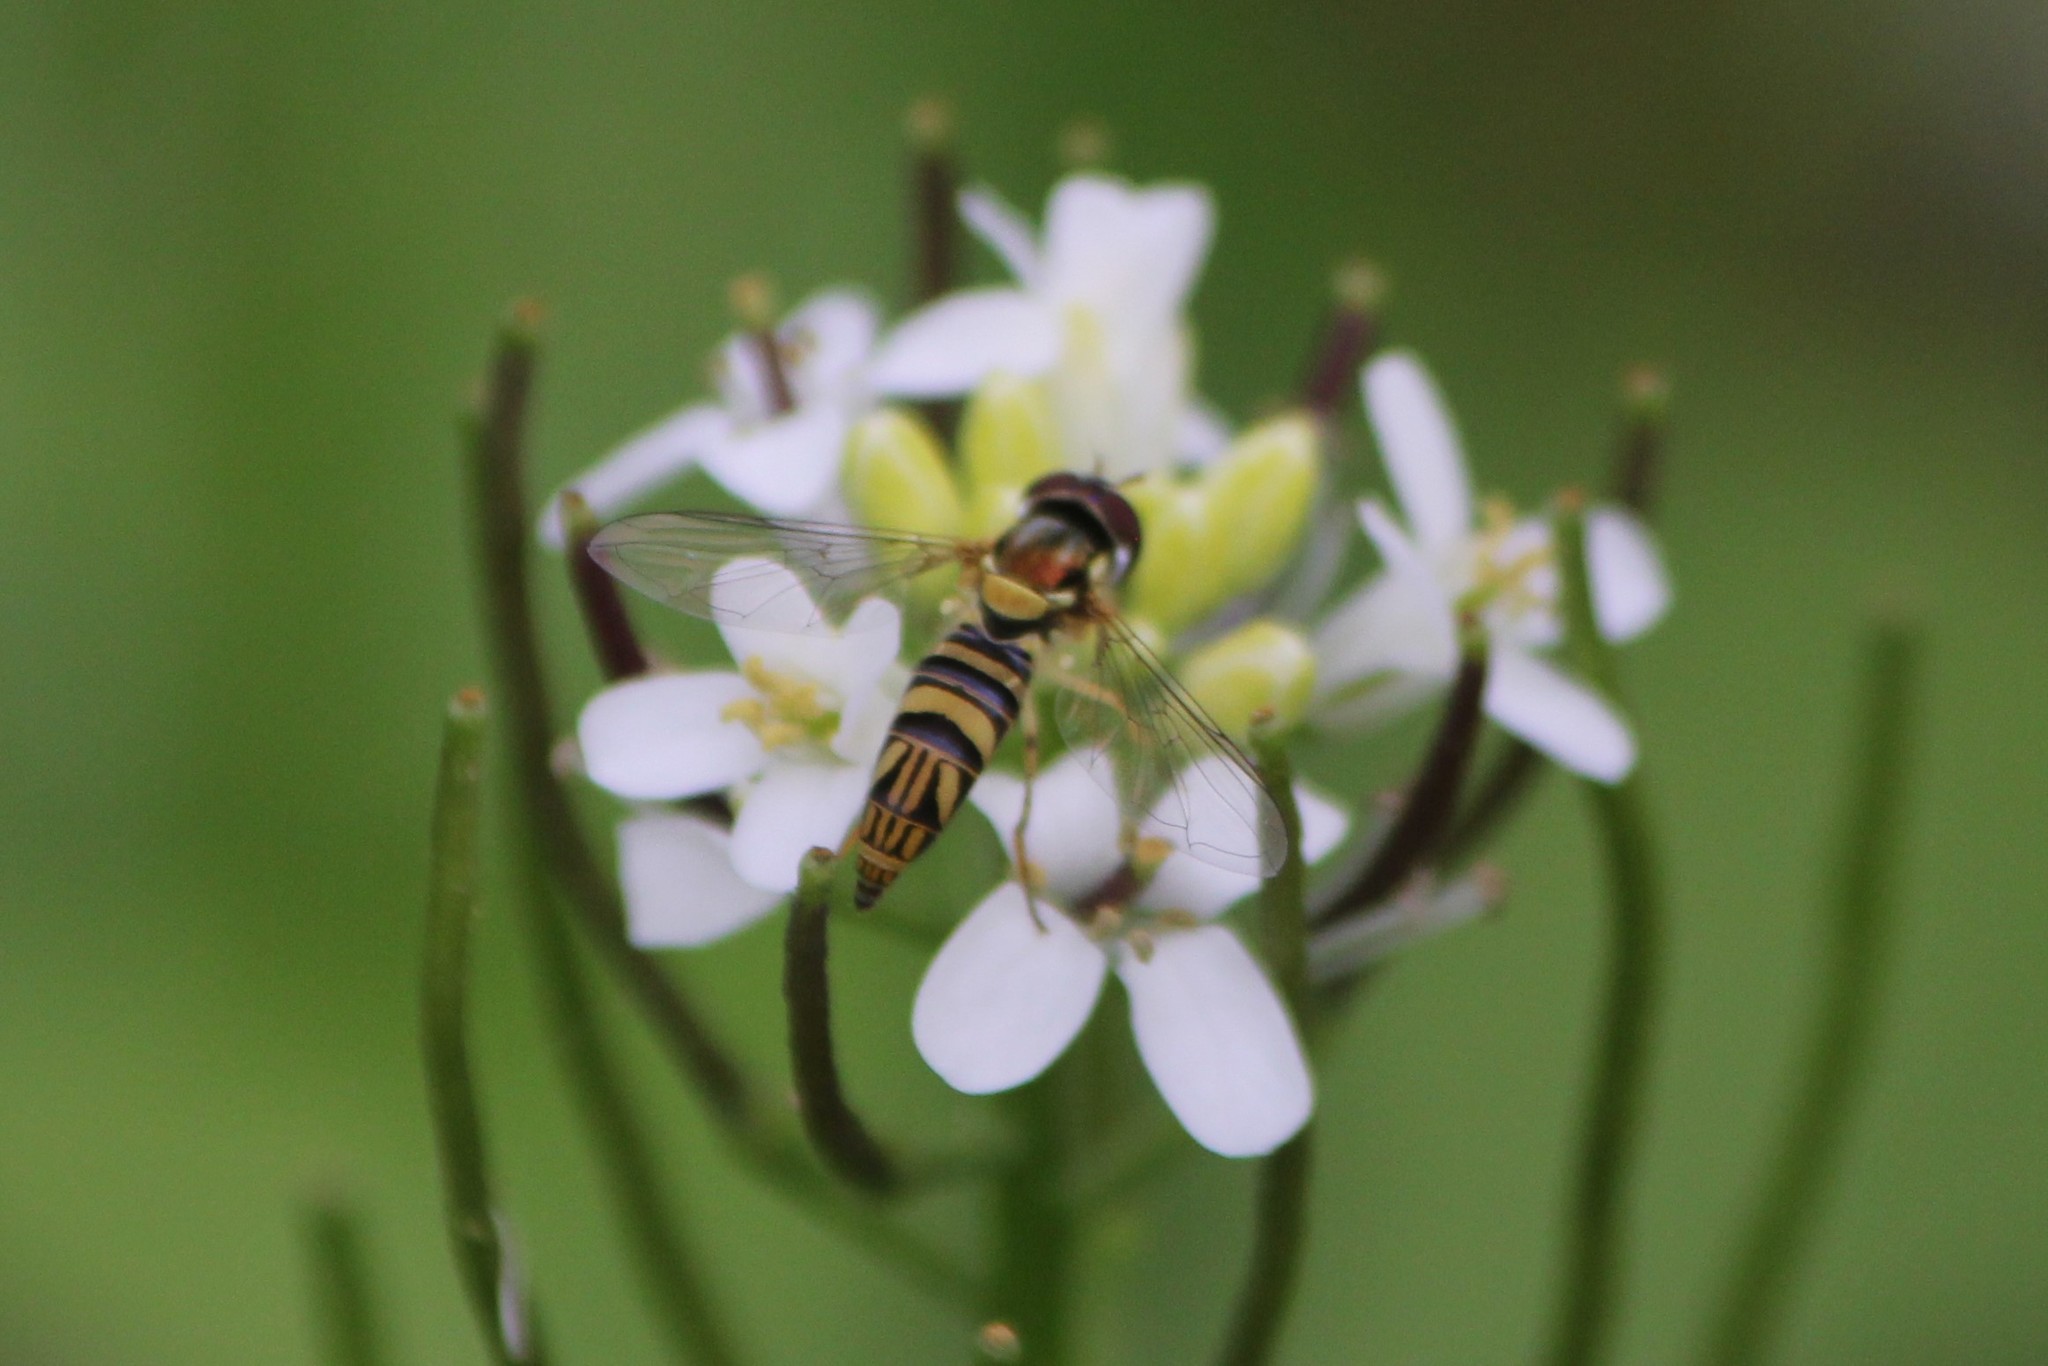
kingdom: Animalia
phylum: Arthropoda
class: Insecta
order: Diptera
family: Syrphidae
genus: Allograpta
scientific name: Allograpta obliqua
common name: Common oblique syrphid
